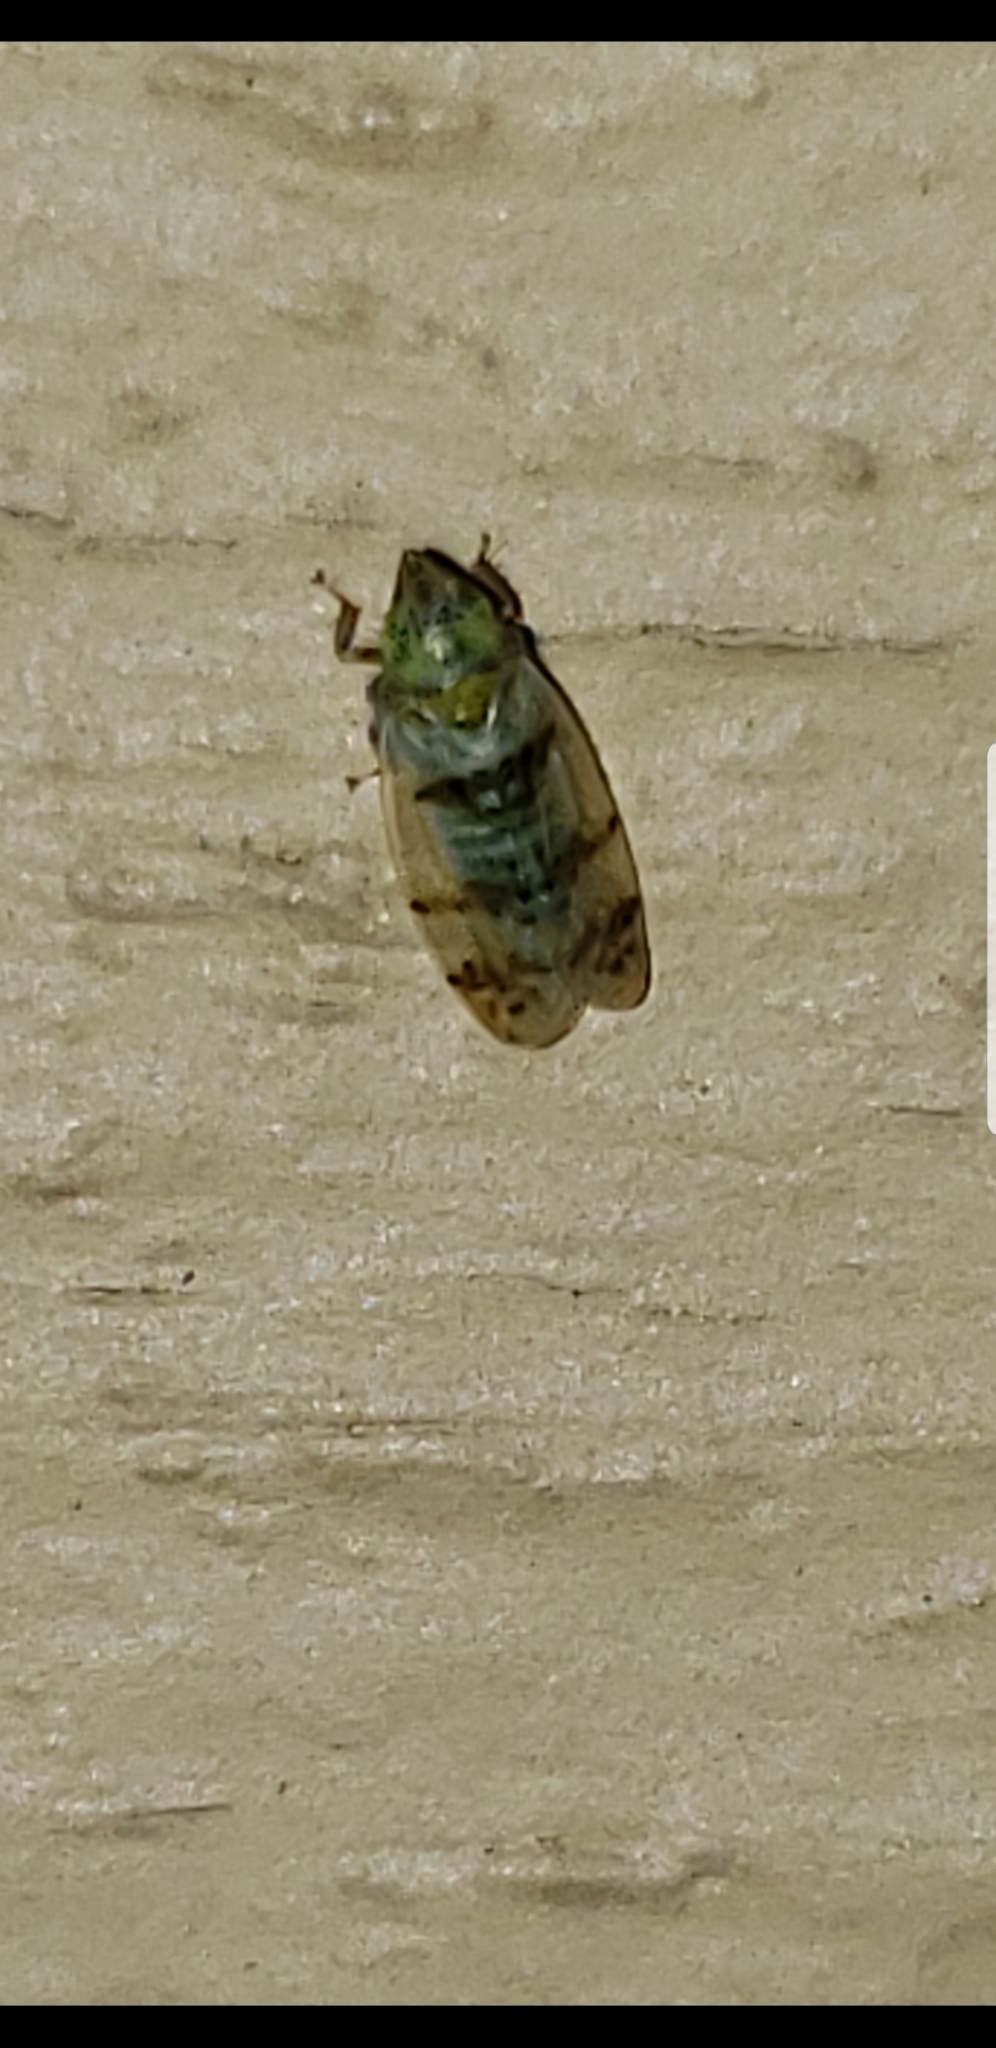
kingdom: Animalia
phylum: Arthropoda
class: Insecta
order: Hemiptera
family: Cicadellidae
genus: Japananus
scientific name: Japananus hyalinus
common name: The japanese maple leafhopper
